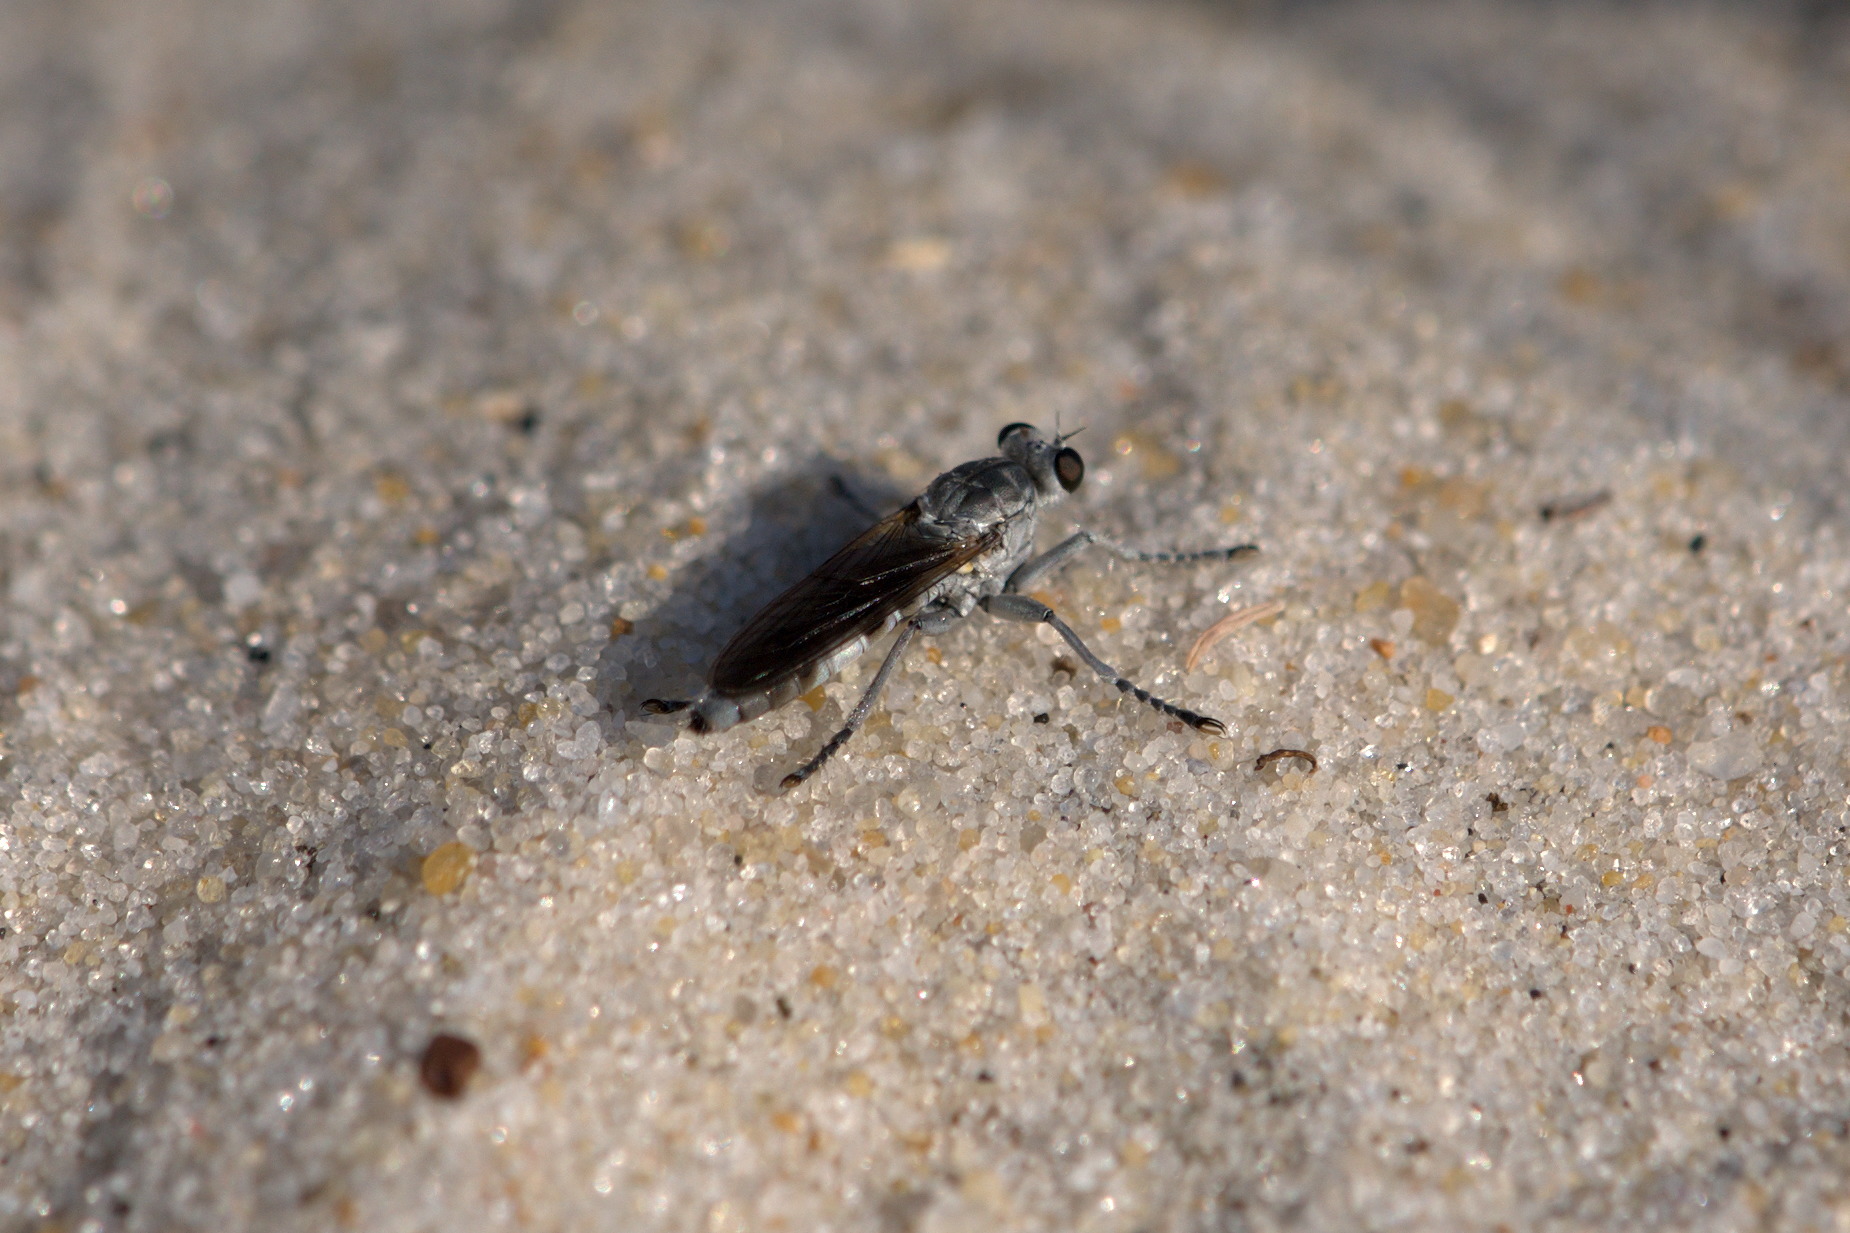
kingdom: Animalia
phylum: Arthropoda
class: Insecta
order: Diptera
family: Asilidae
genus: Stichopogon
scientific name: Stichopogon trifasciatus
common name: Three-banded robber fly
